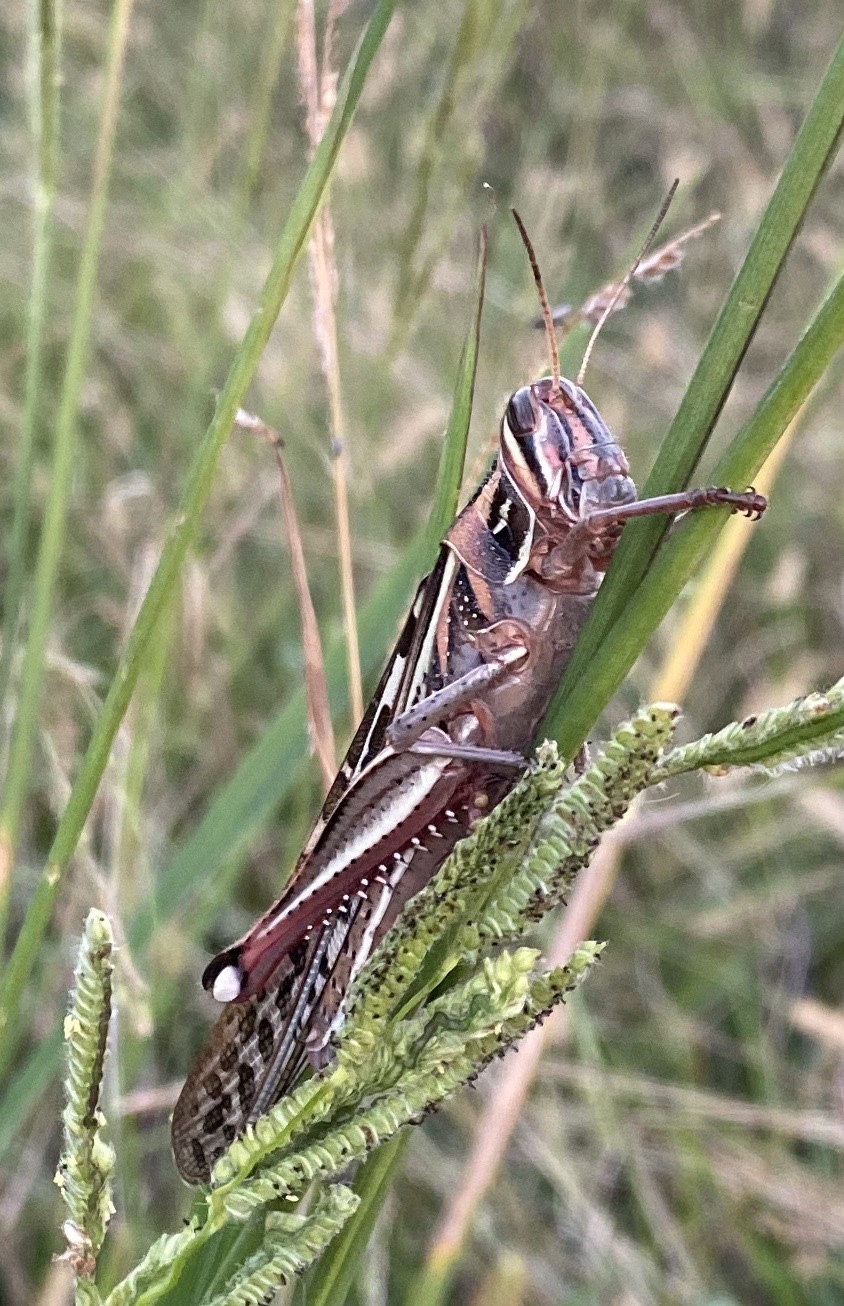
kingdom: Animalia
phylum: Arthropoda
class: Insecta
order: Orthoptera
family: Acrididae
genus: Schistocerca
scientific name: Schistocerca americana
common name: American bird locust
